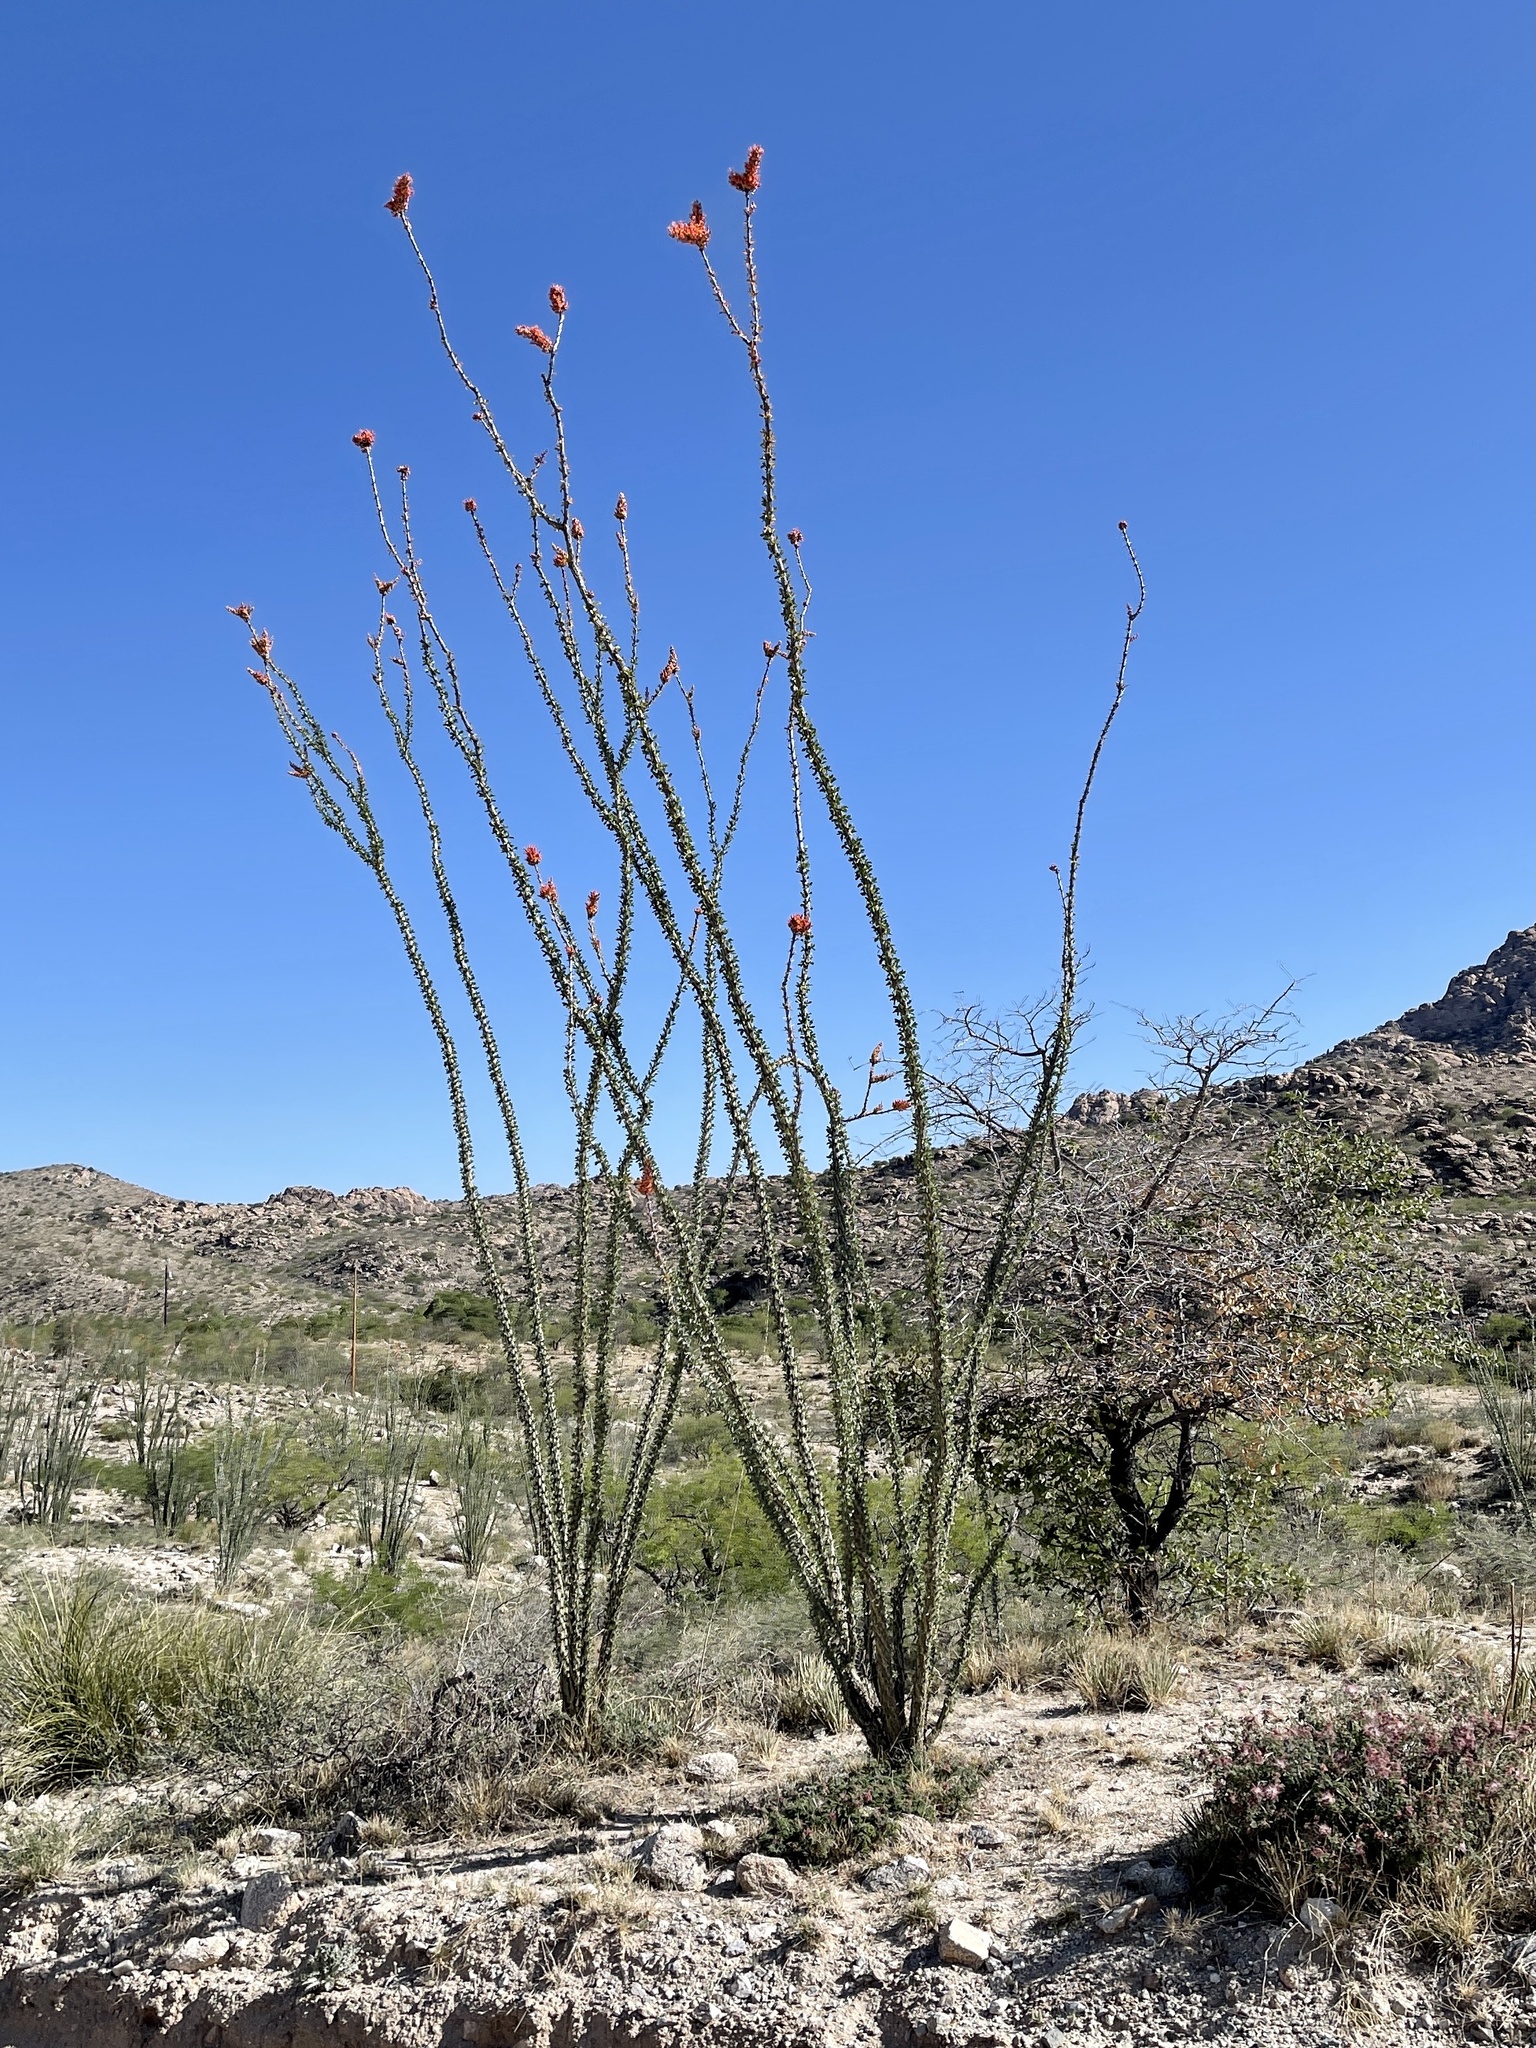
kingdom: Plantae
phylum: Tracheophyta
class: Magnoliopsida
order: Ericales
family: Fouquieriaceae
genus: Fouquieria
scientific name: Fouquieria splendens
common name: Vine-cactus
